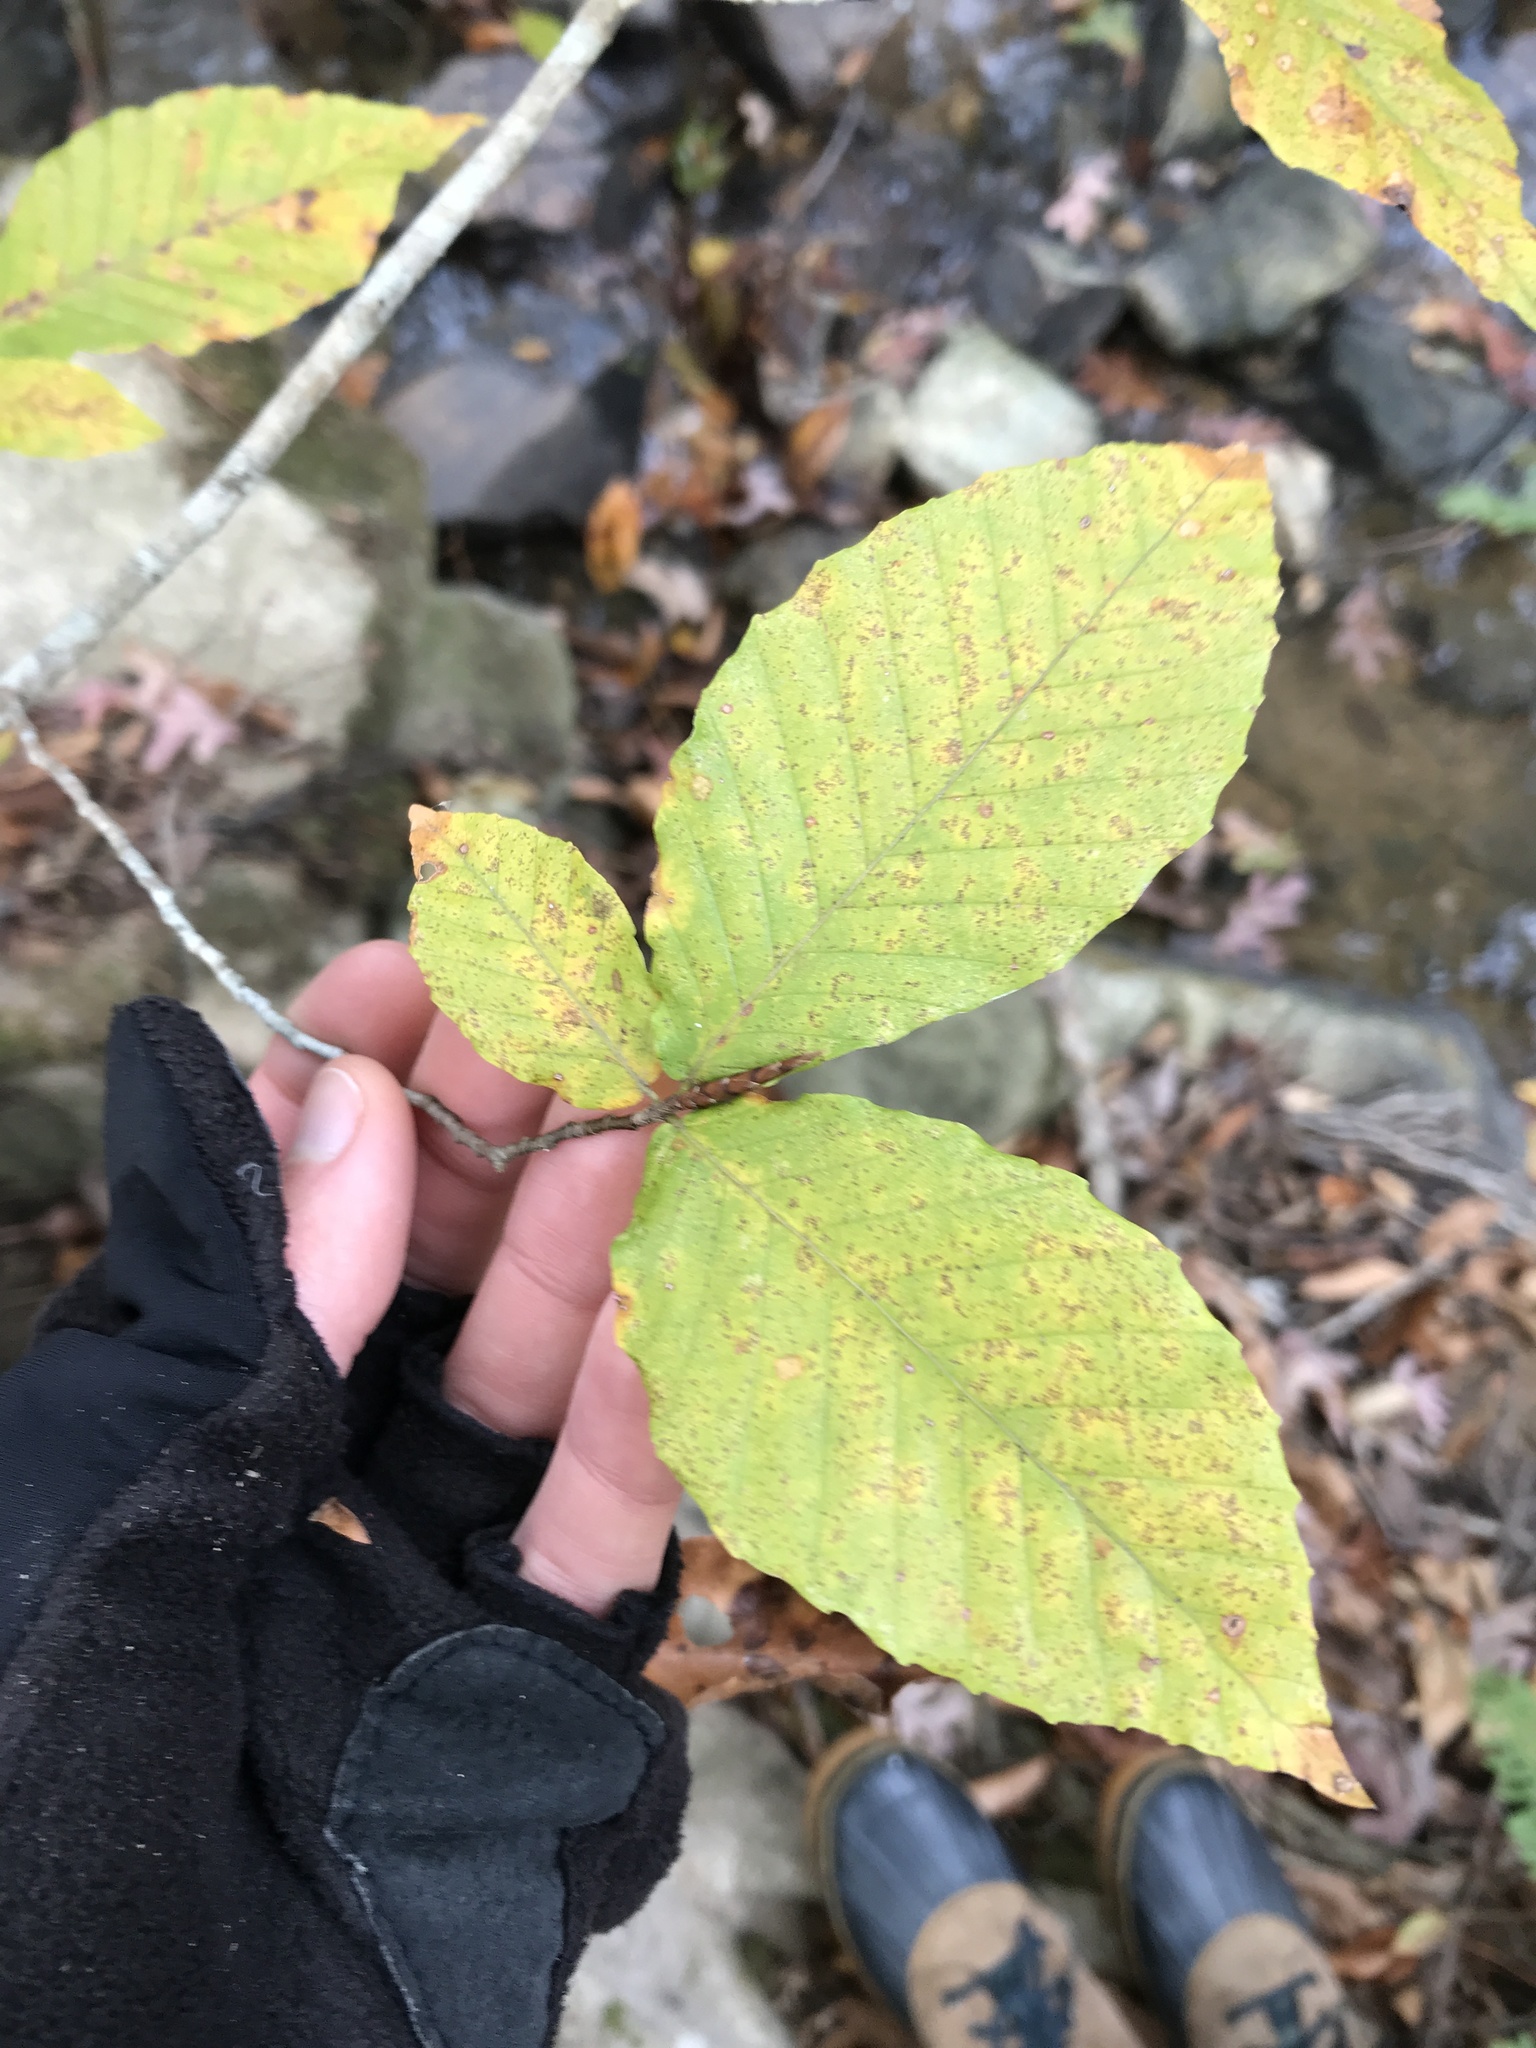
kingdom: Plantae
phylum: Tracheophyta
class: Magnoliopsida
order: Fagales
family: Fagaceae
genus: Fagus
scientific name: Fagus grandifolia
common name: American beech
